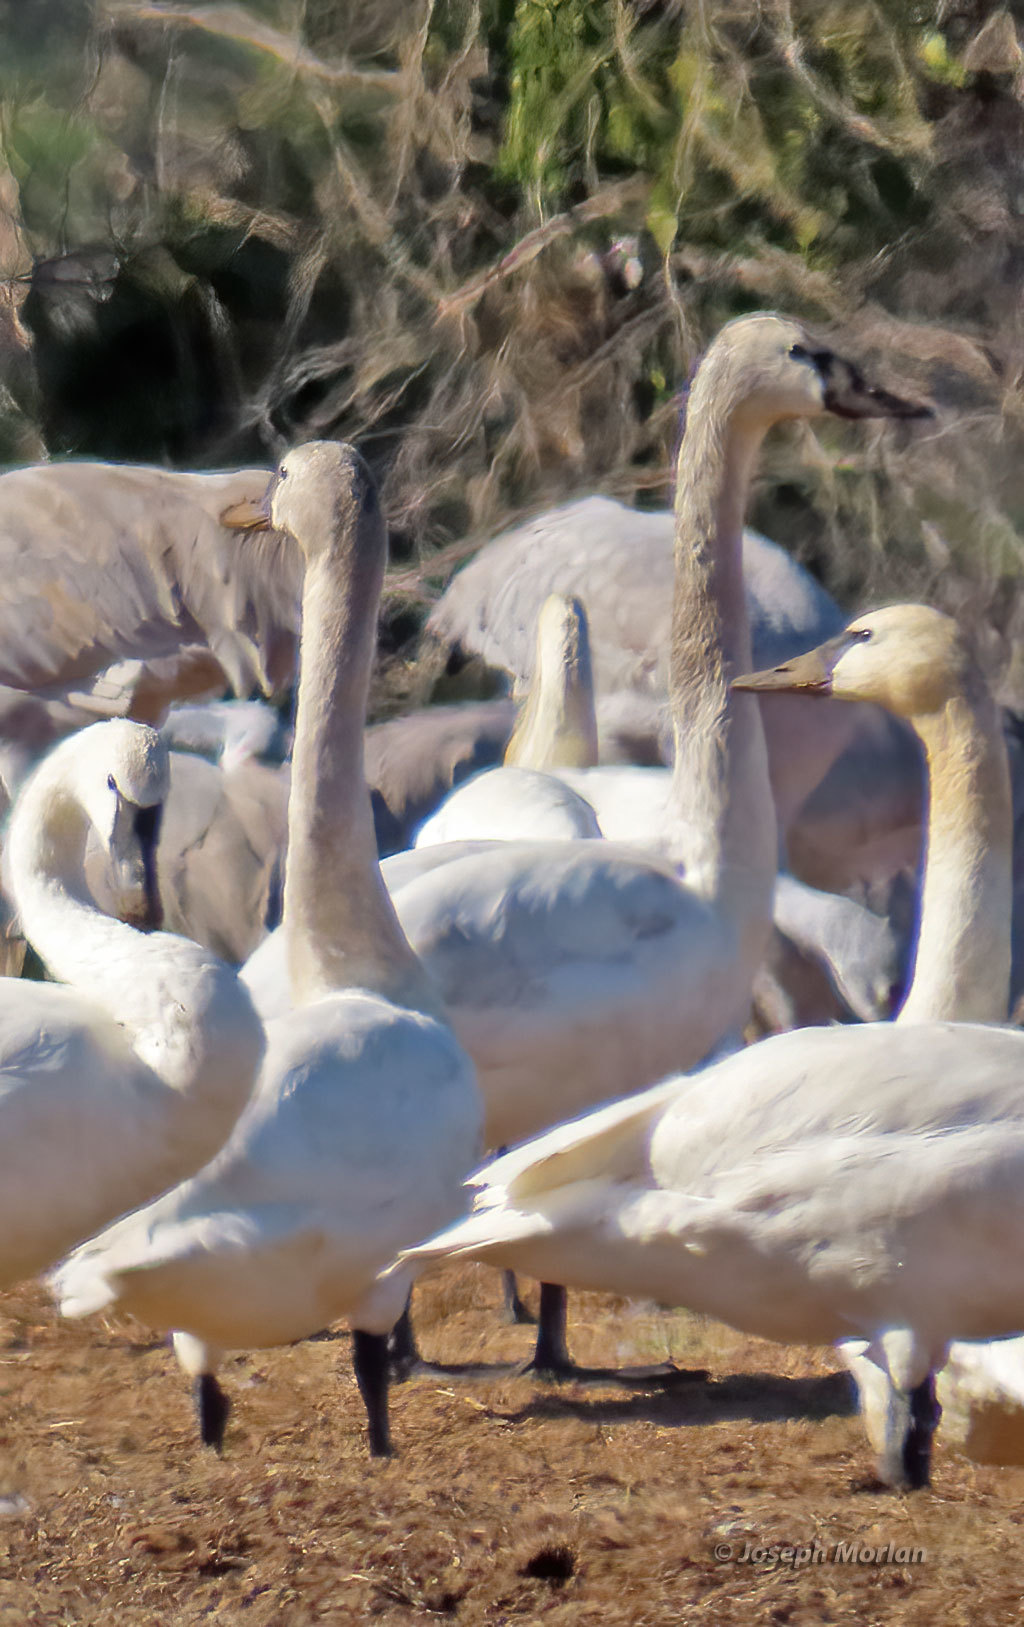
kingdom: Animalia
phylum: Chordata
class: Aves
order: Anseriformes
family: Anatidae
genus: Cygnus
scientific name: Cygnus buccinator
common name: Trumpeter swan
